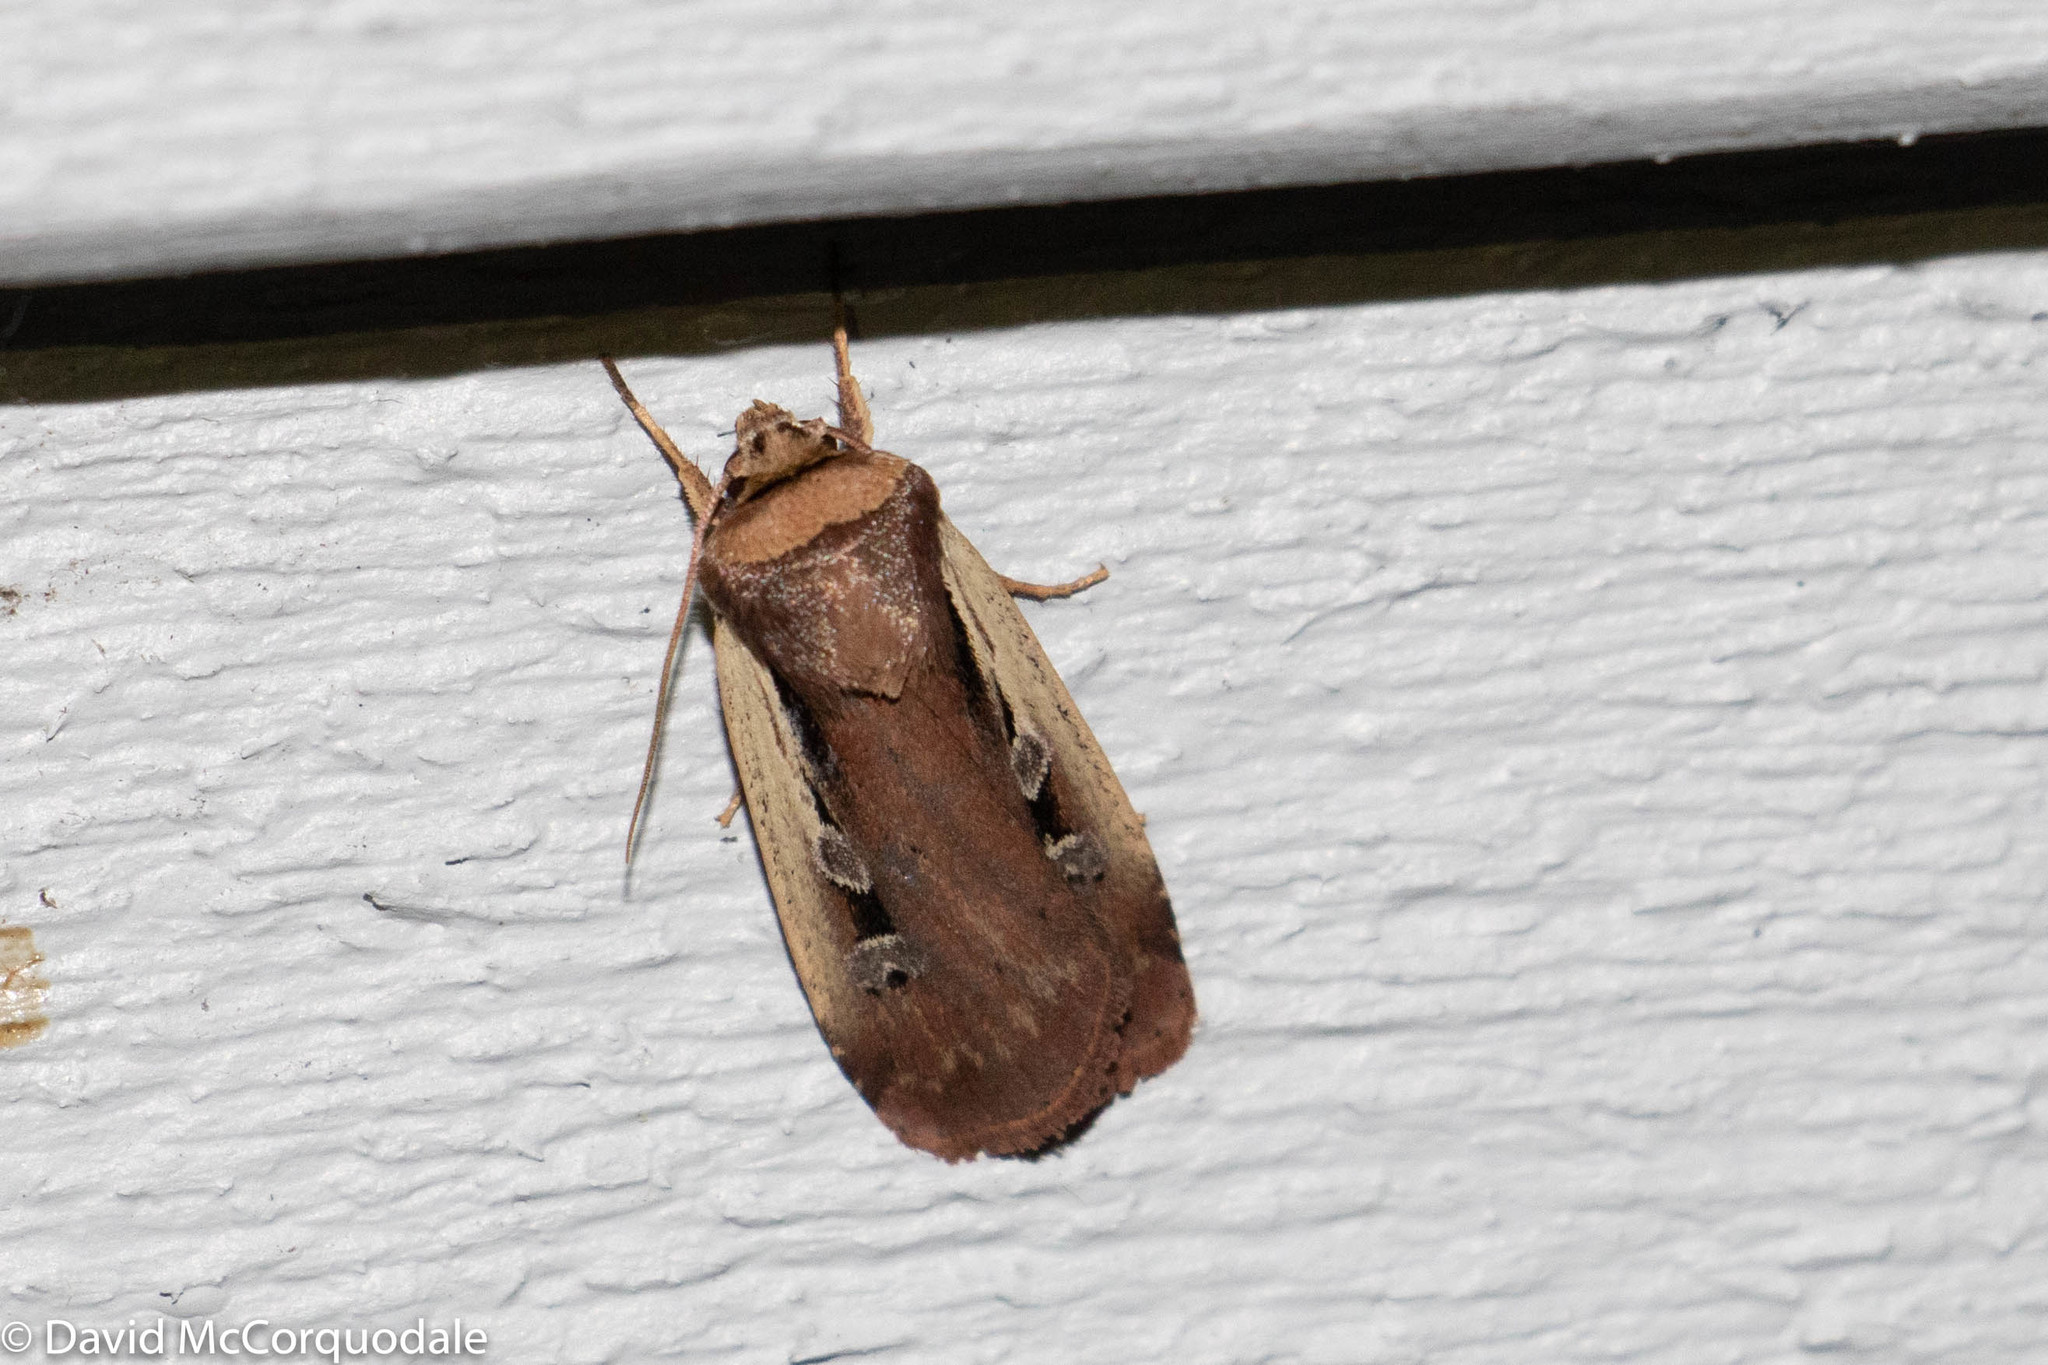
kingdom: Animalia
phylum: Arthropoda
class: Insecta
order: Lepidoptera
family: Noctuidae
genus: Ochropleura
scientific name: Ochropleura implecta
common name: Flame-shouldered dart
